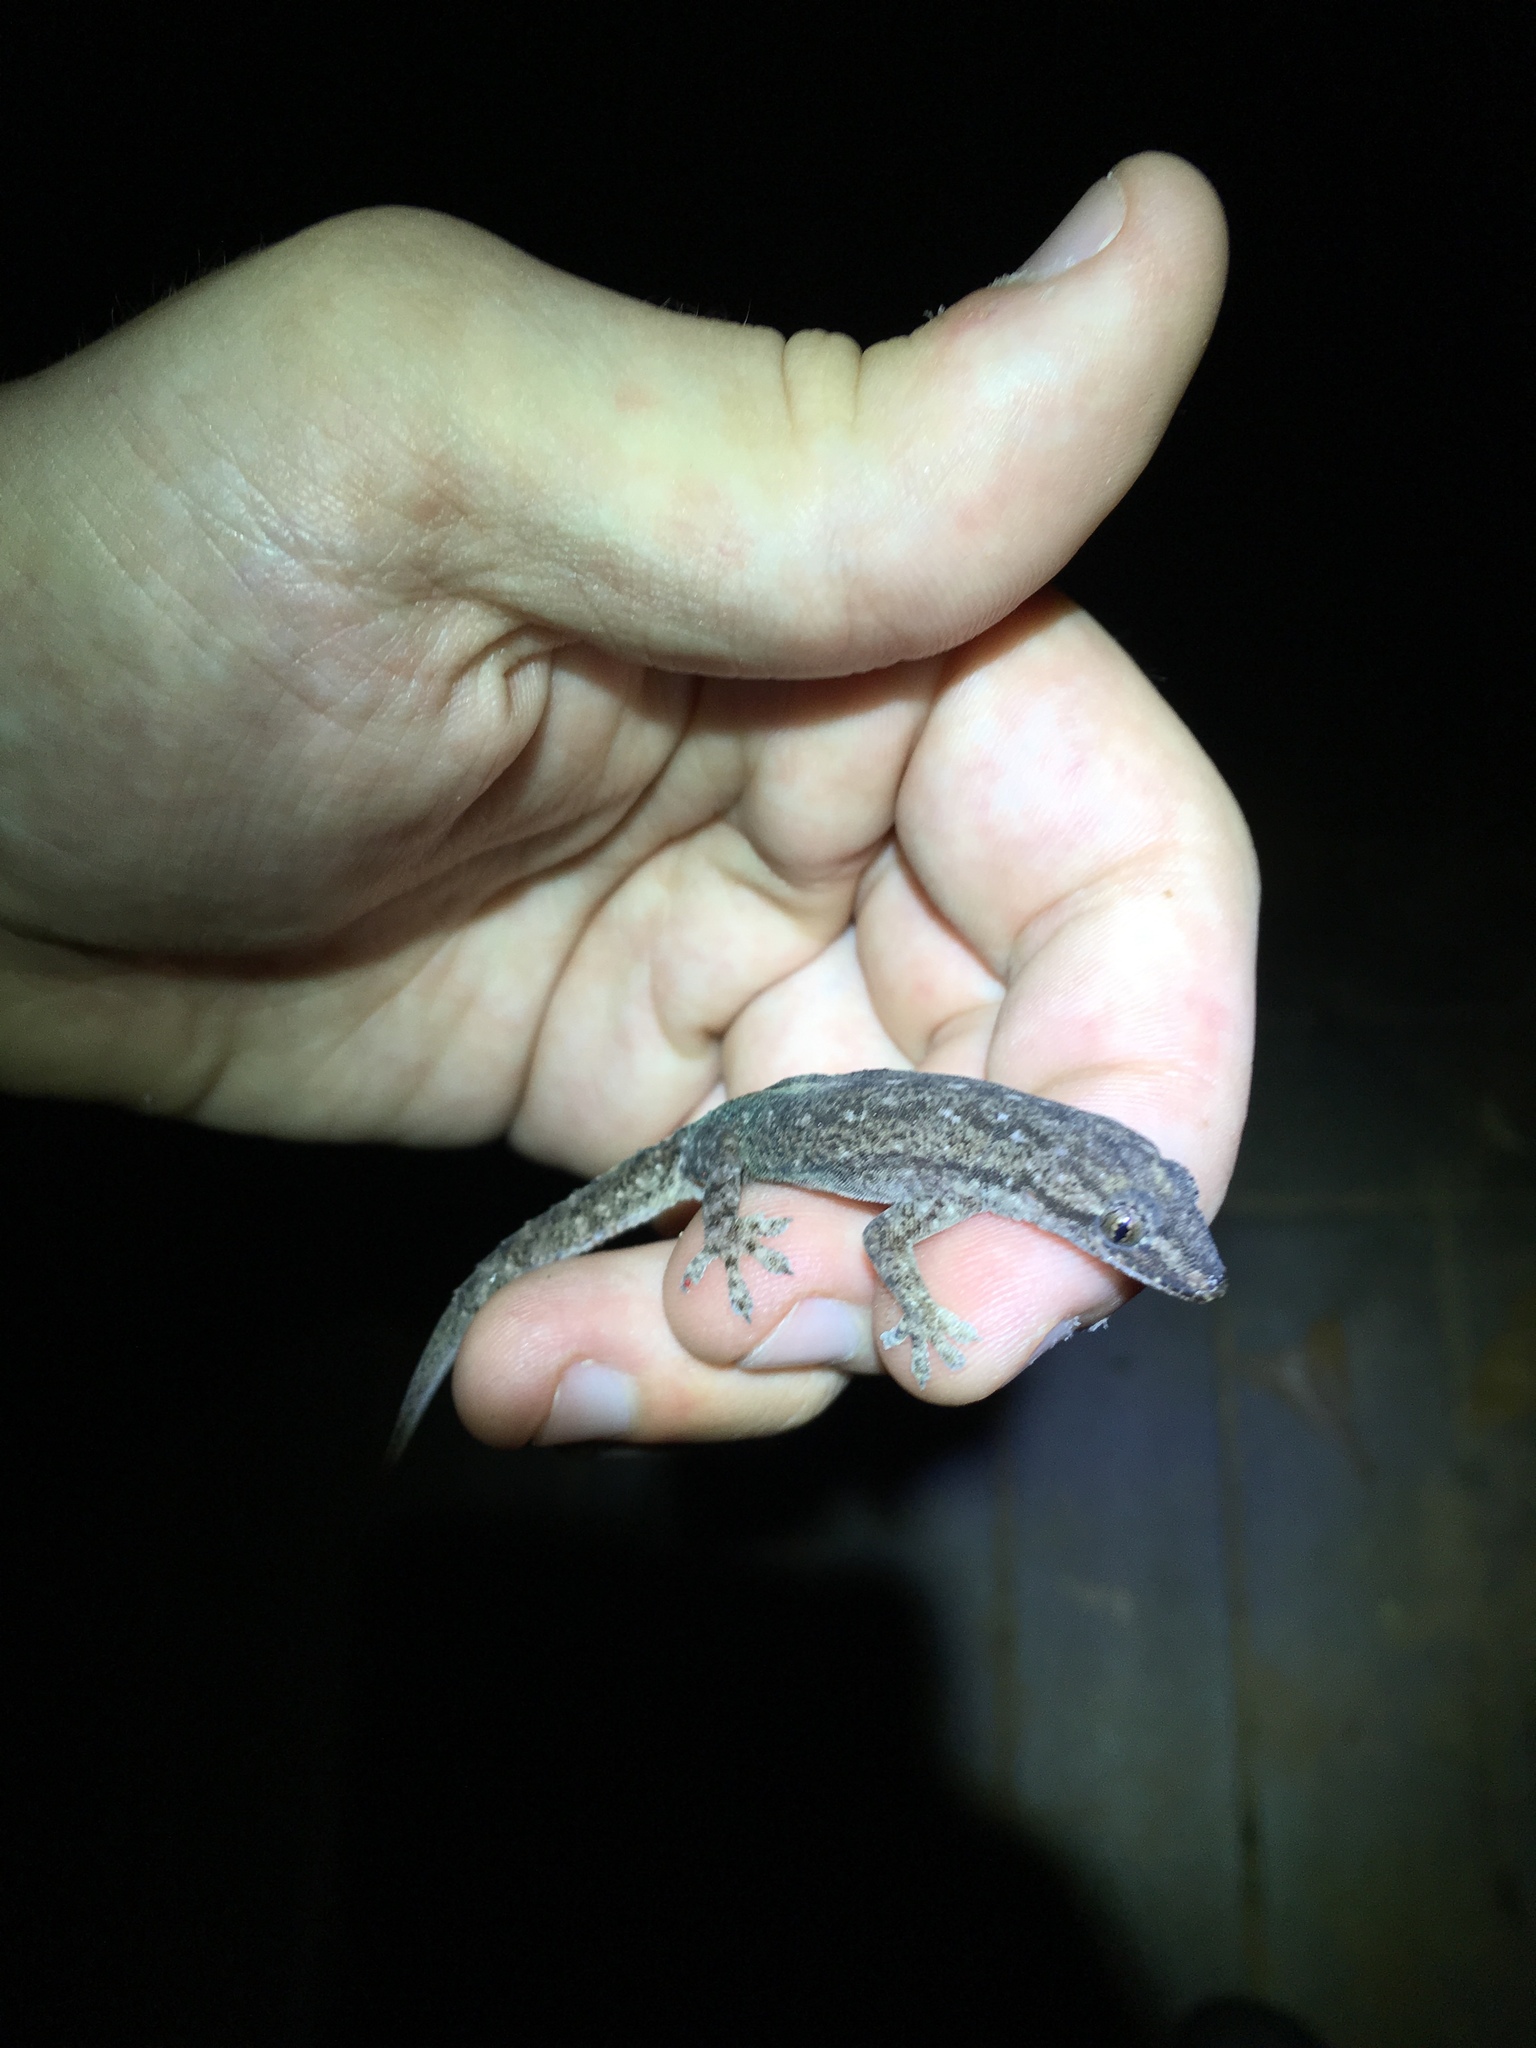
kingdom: Animalia
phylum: Chordata
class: Squamata
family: Gekkonidae
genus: Hemidactylus
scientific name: Hemidactylus frenatus
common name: Common house gecko
